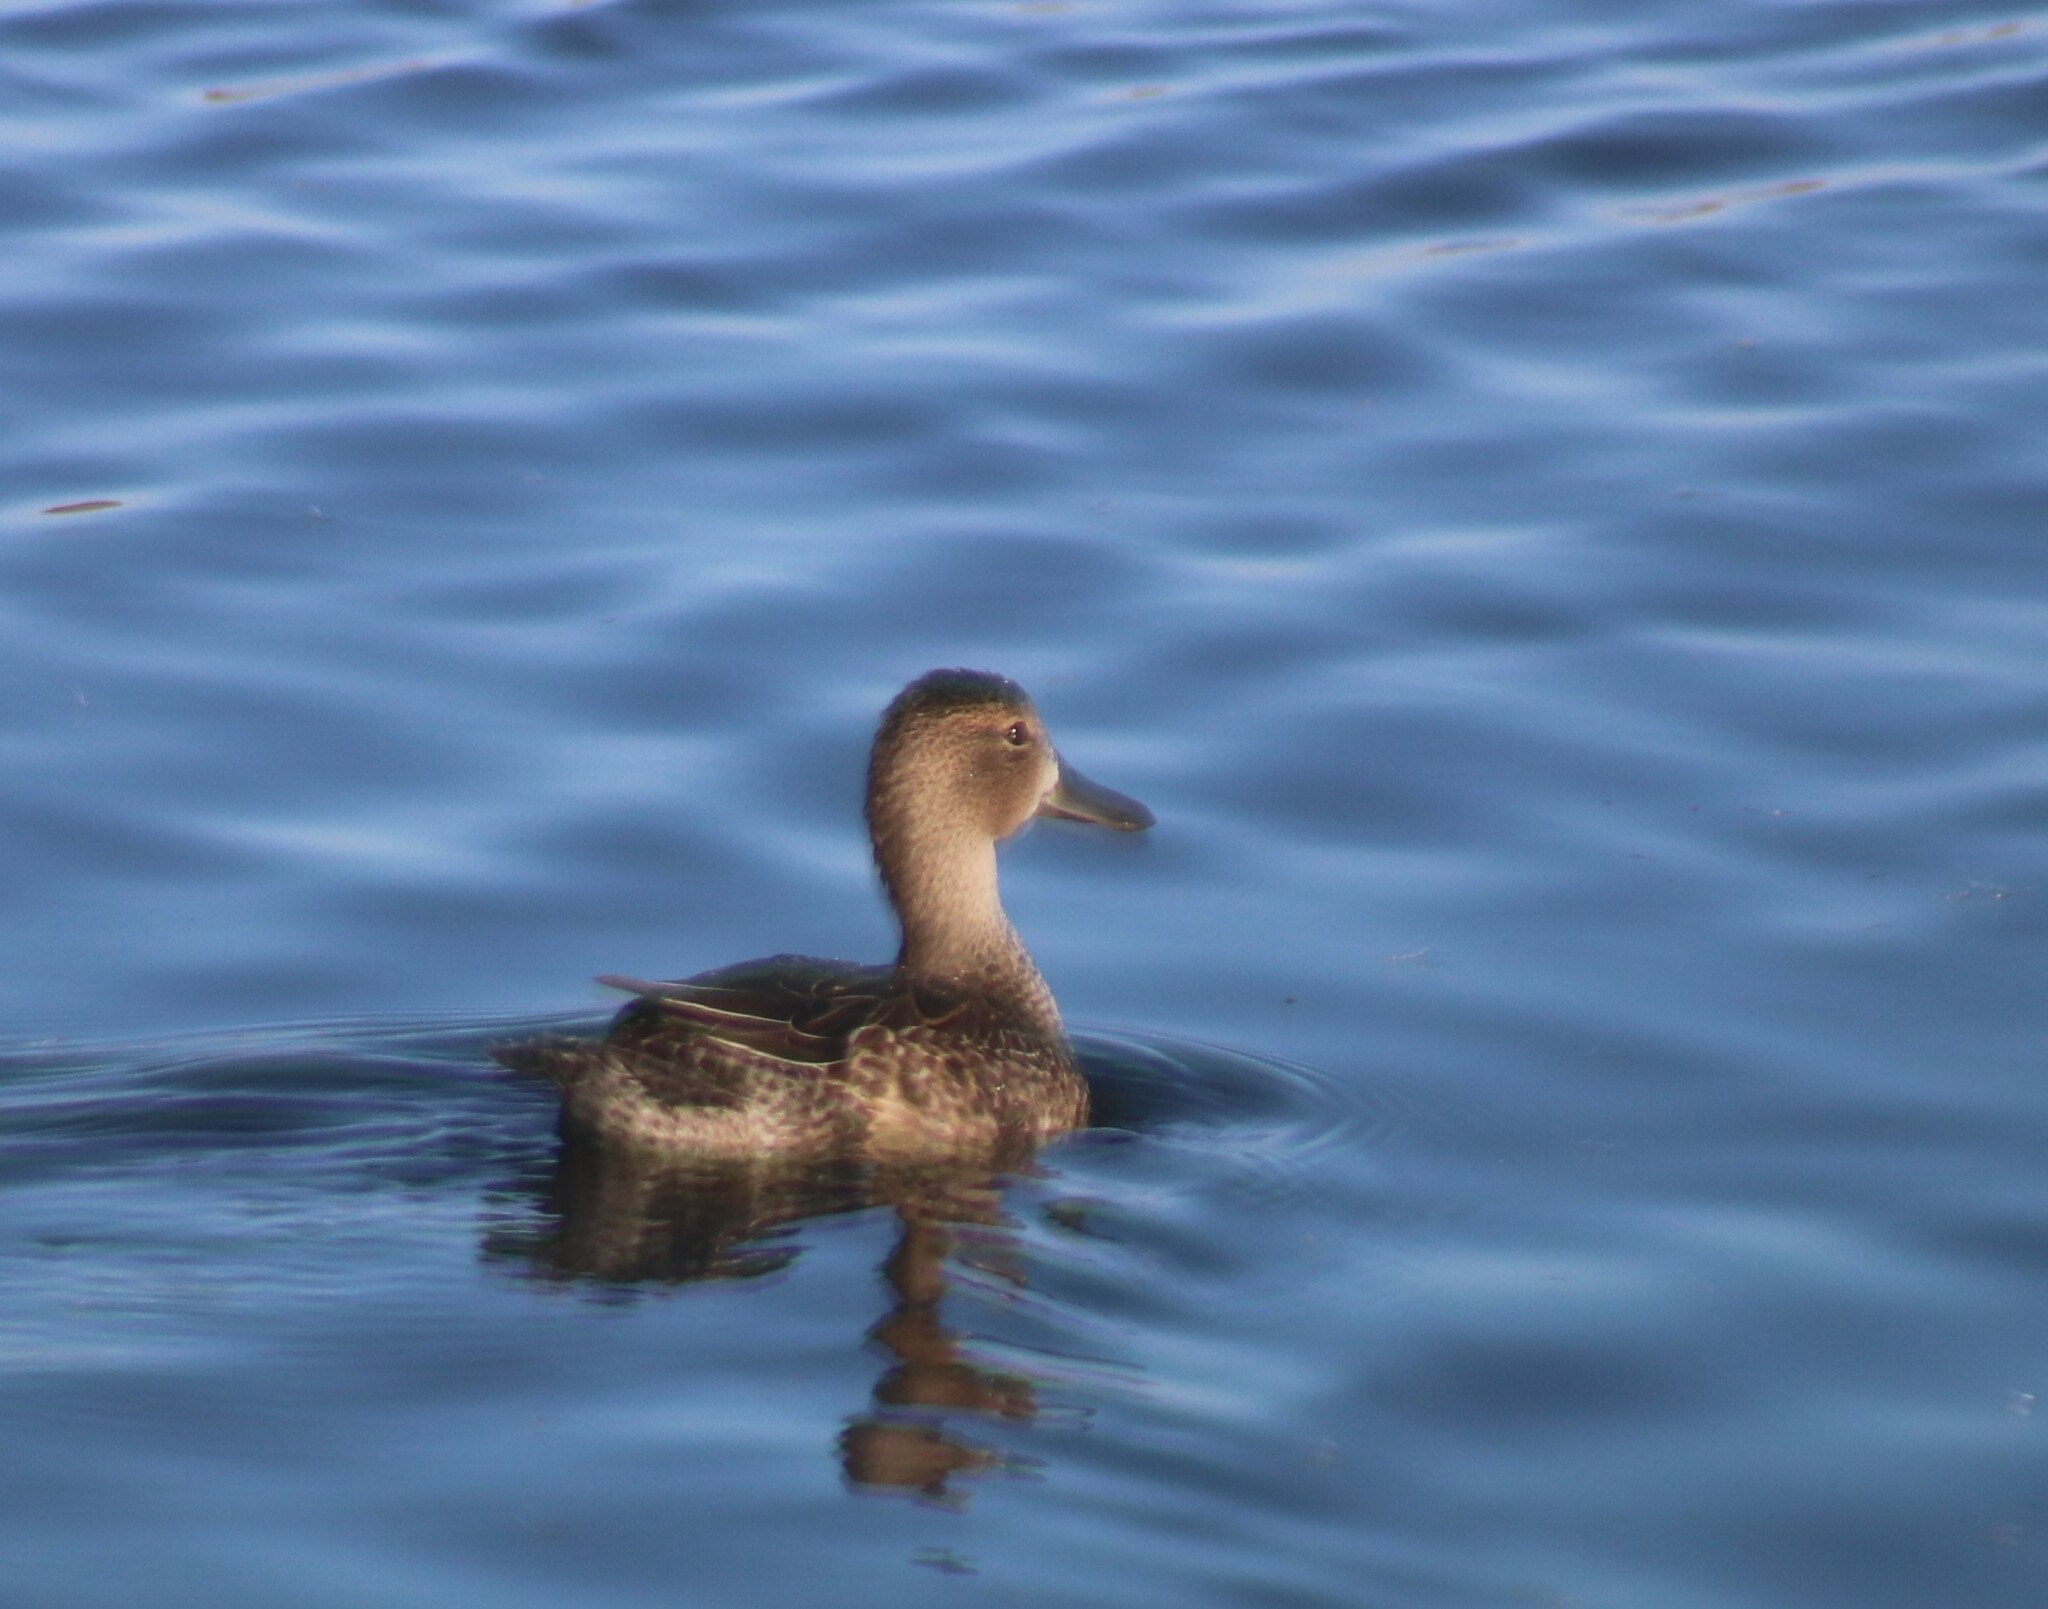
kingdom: Animalia
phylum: Chordata
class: Aves
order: Anseriformes
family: Anatidae
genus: Spatula
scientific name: Spatula discors
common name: Blue-winged teal
